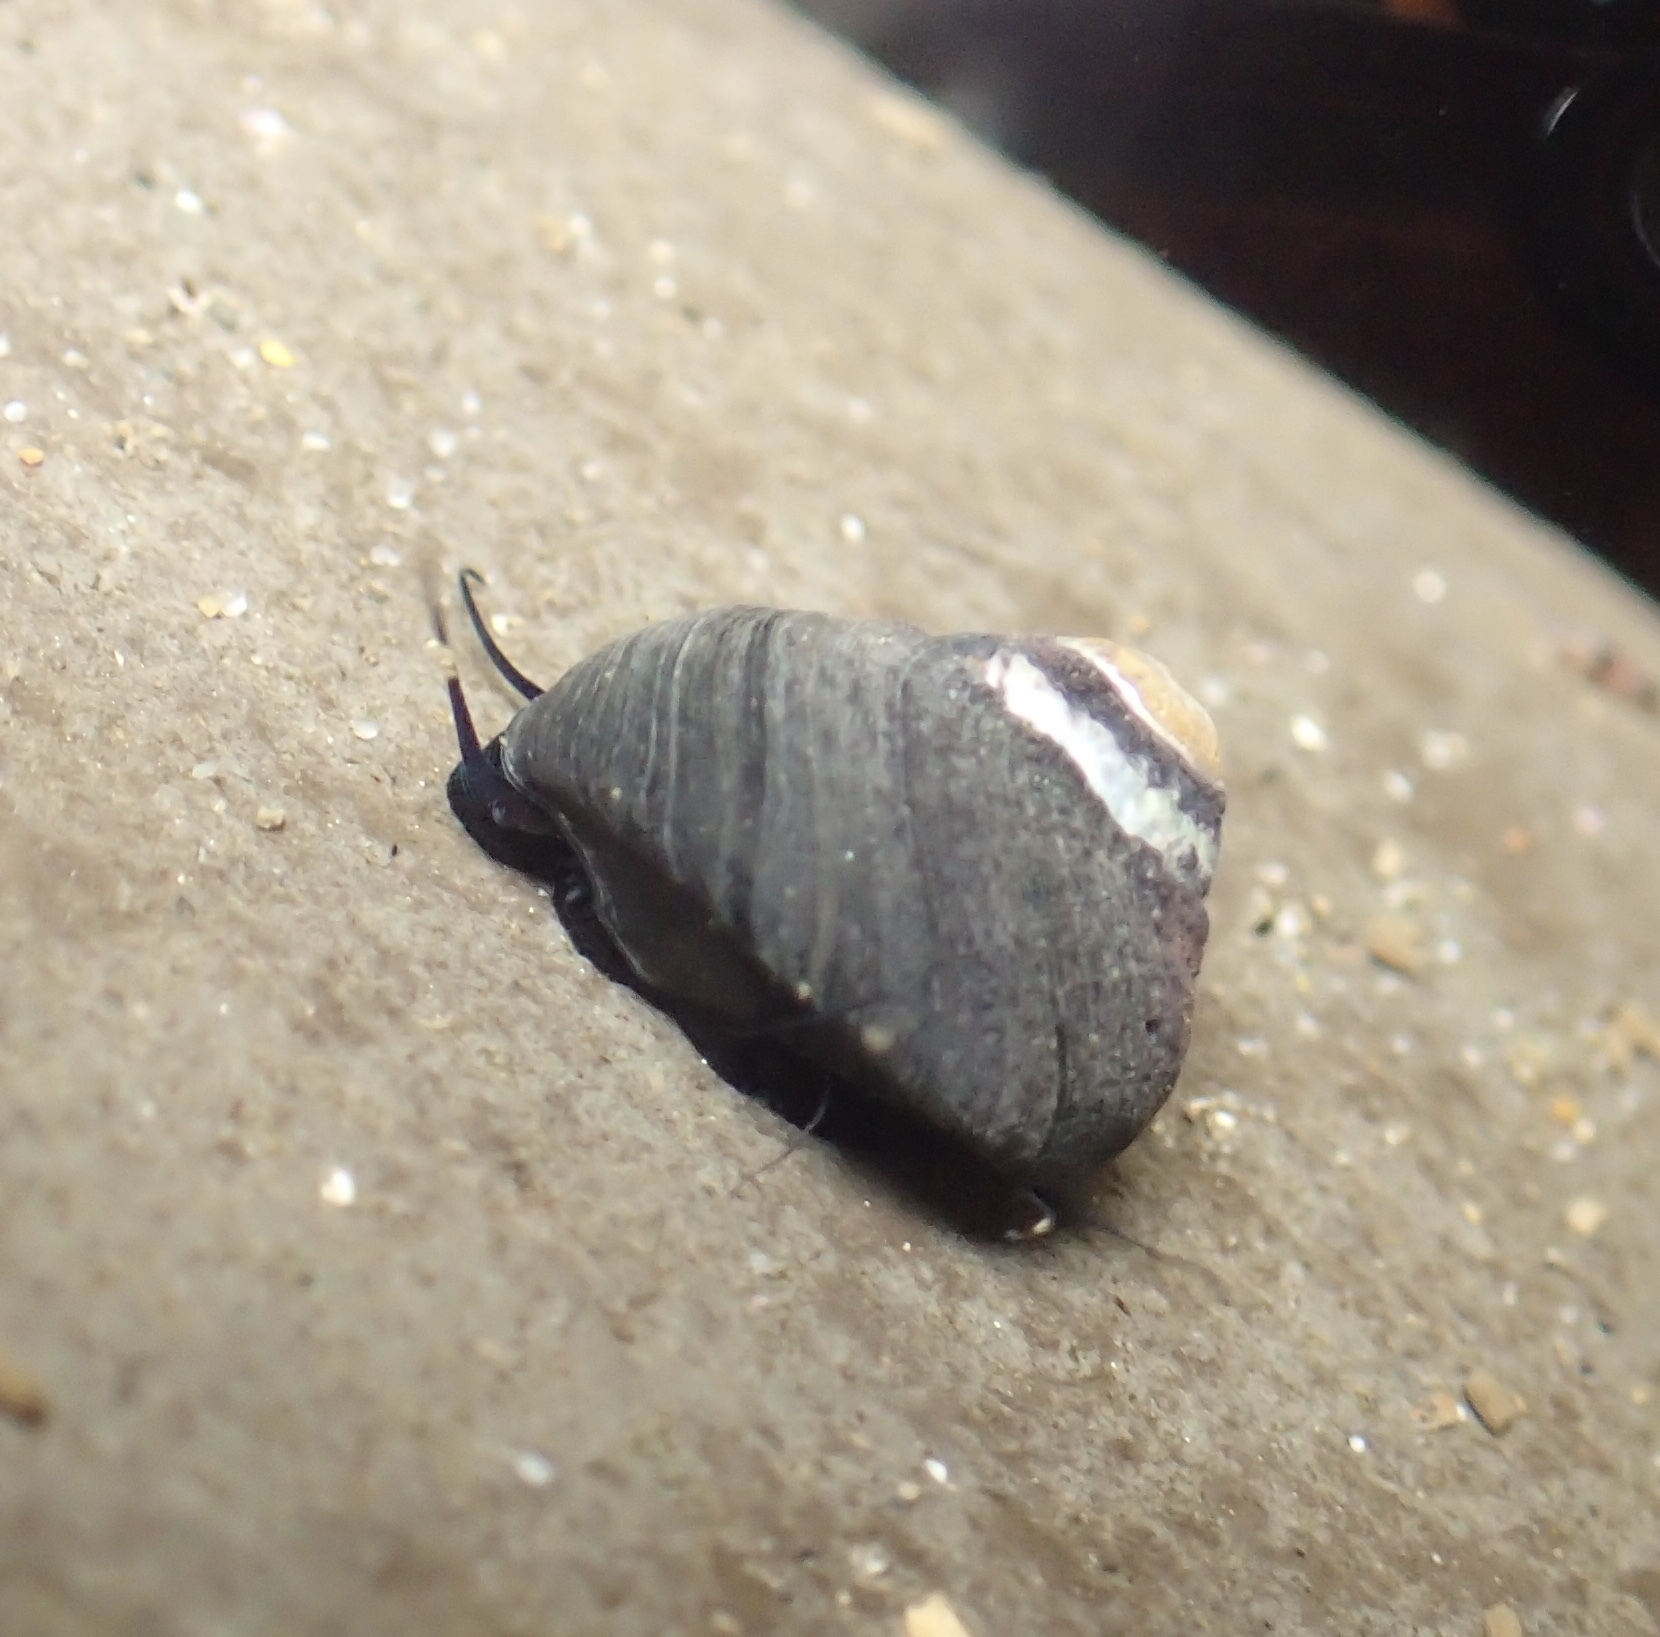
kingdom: Animalia
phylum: Mollusca
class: Gastropoda
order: Trochida
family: Tegulidae
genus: Tegula
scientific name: Tegula funebralis
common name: Black tegula
